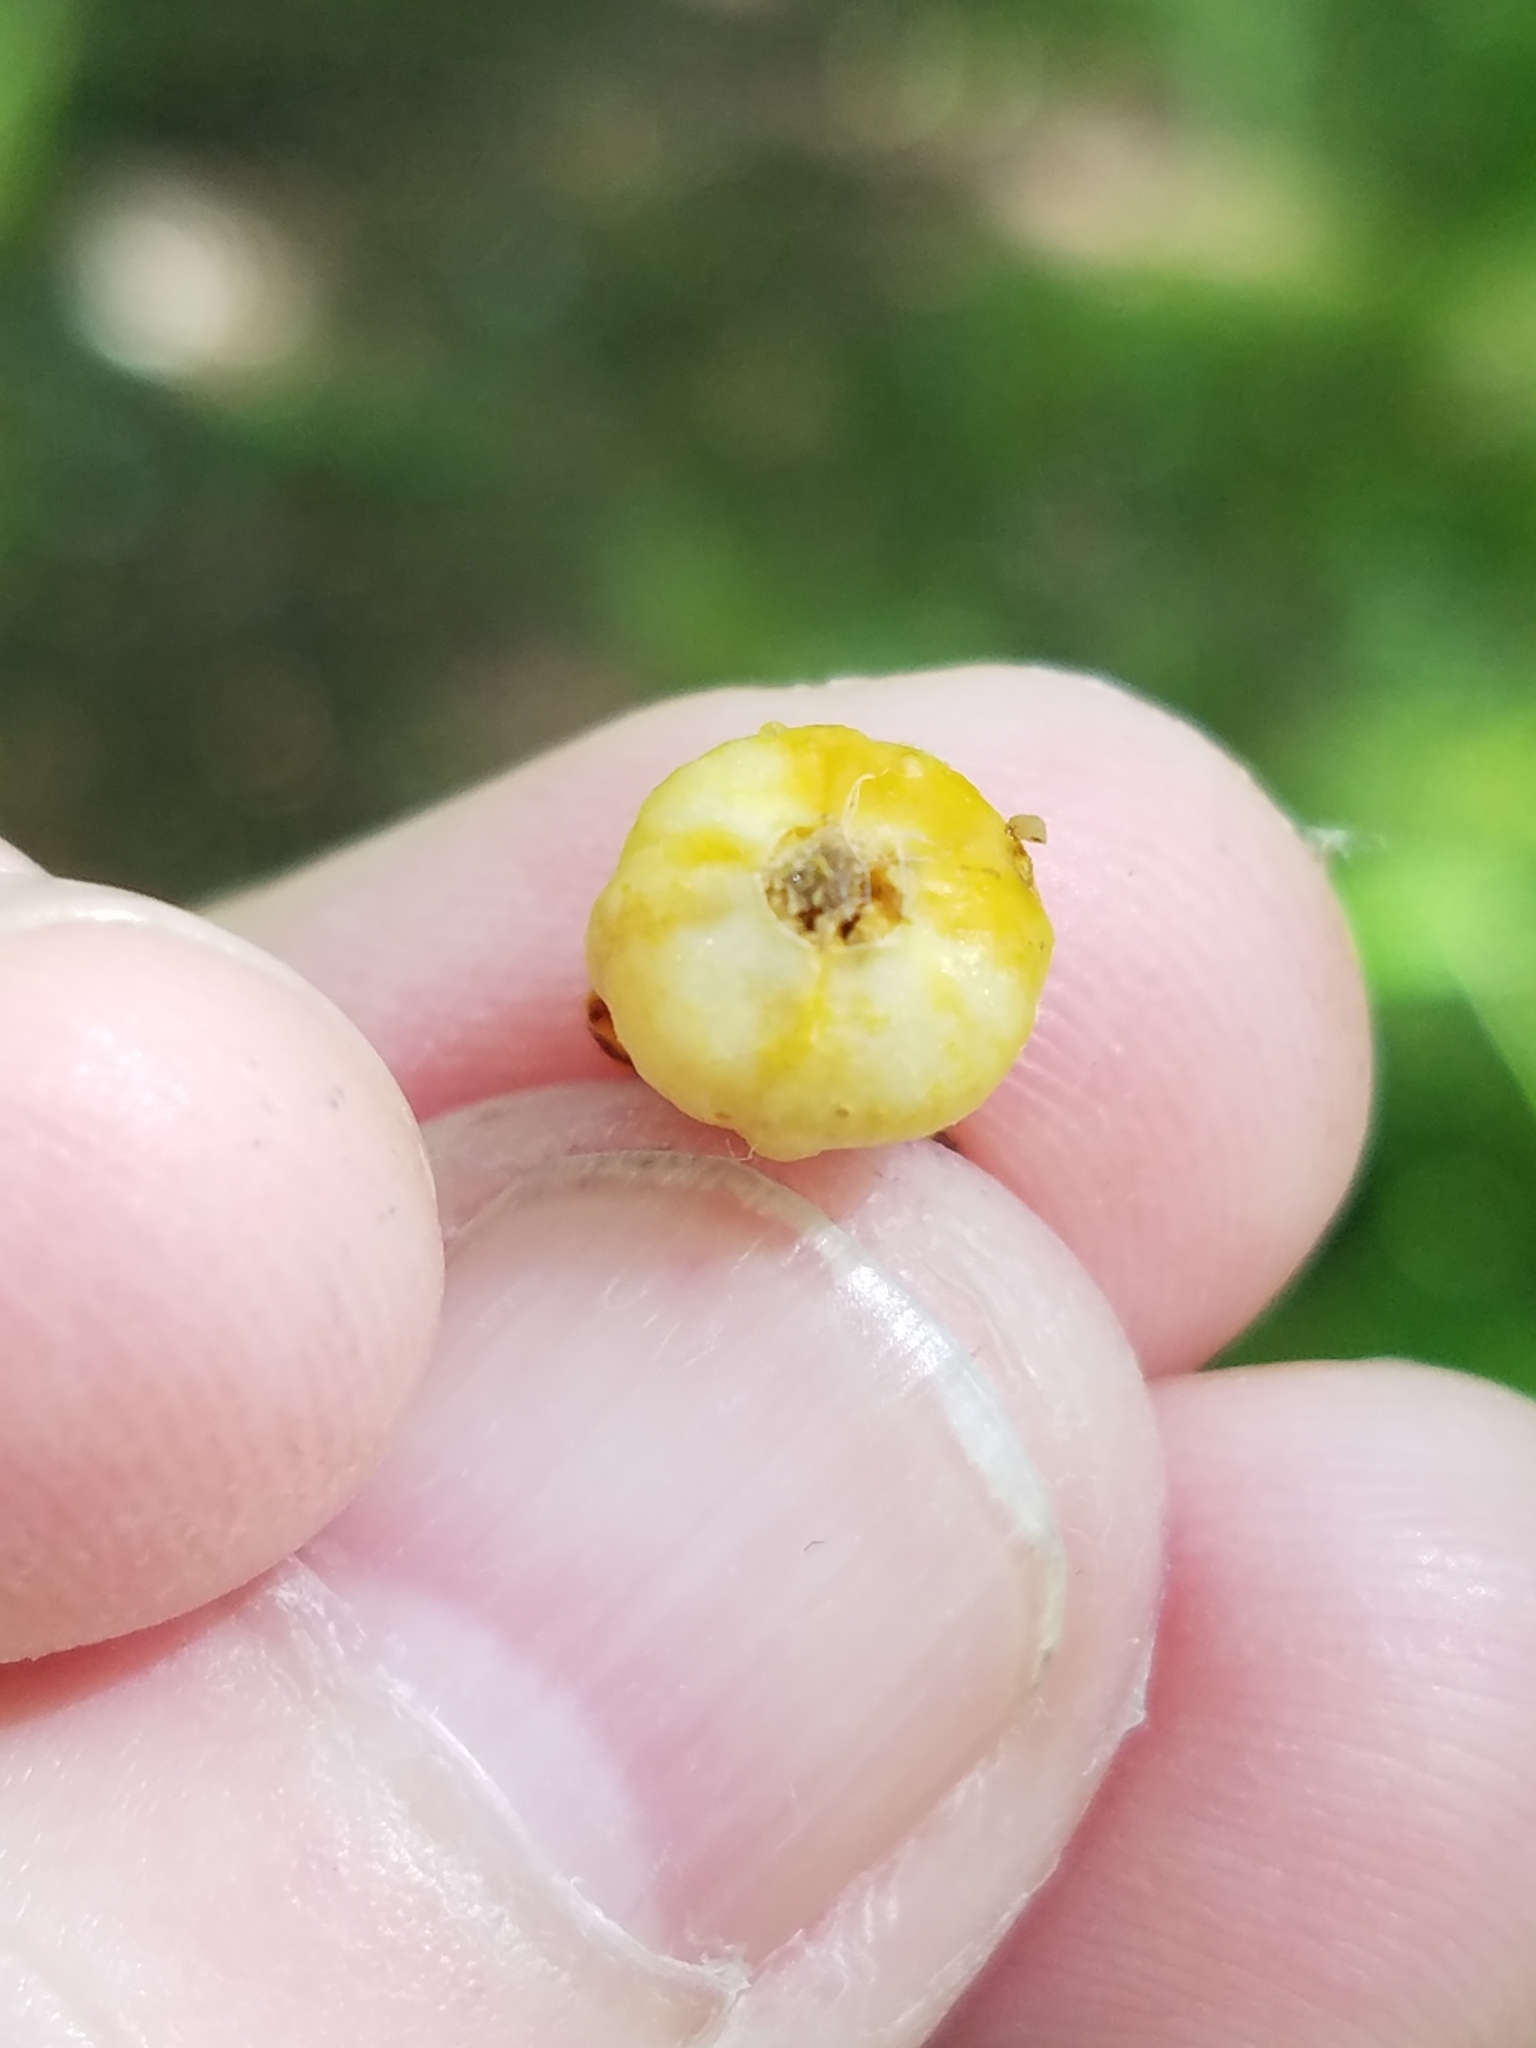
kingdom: Plantae
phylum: Tracheophyta
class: Magnoliopsida
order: Ericales
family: Ebenaceae
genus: Diospyros
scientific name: Diospyros virginiana
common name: Persimmon
